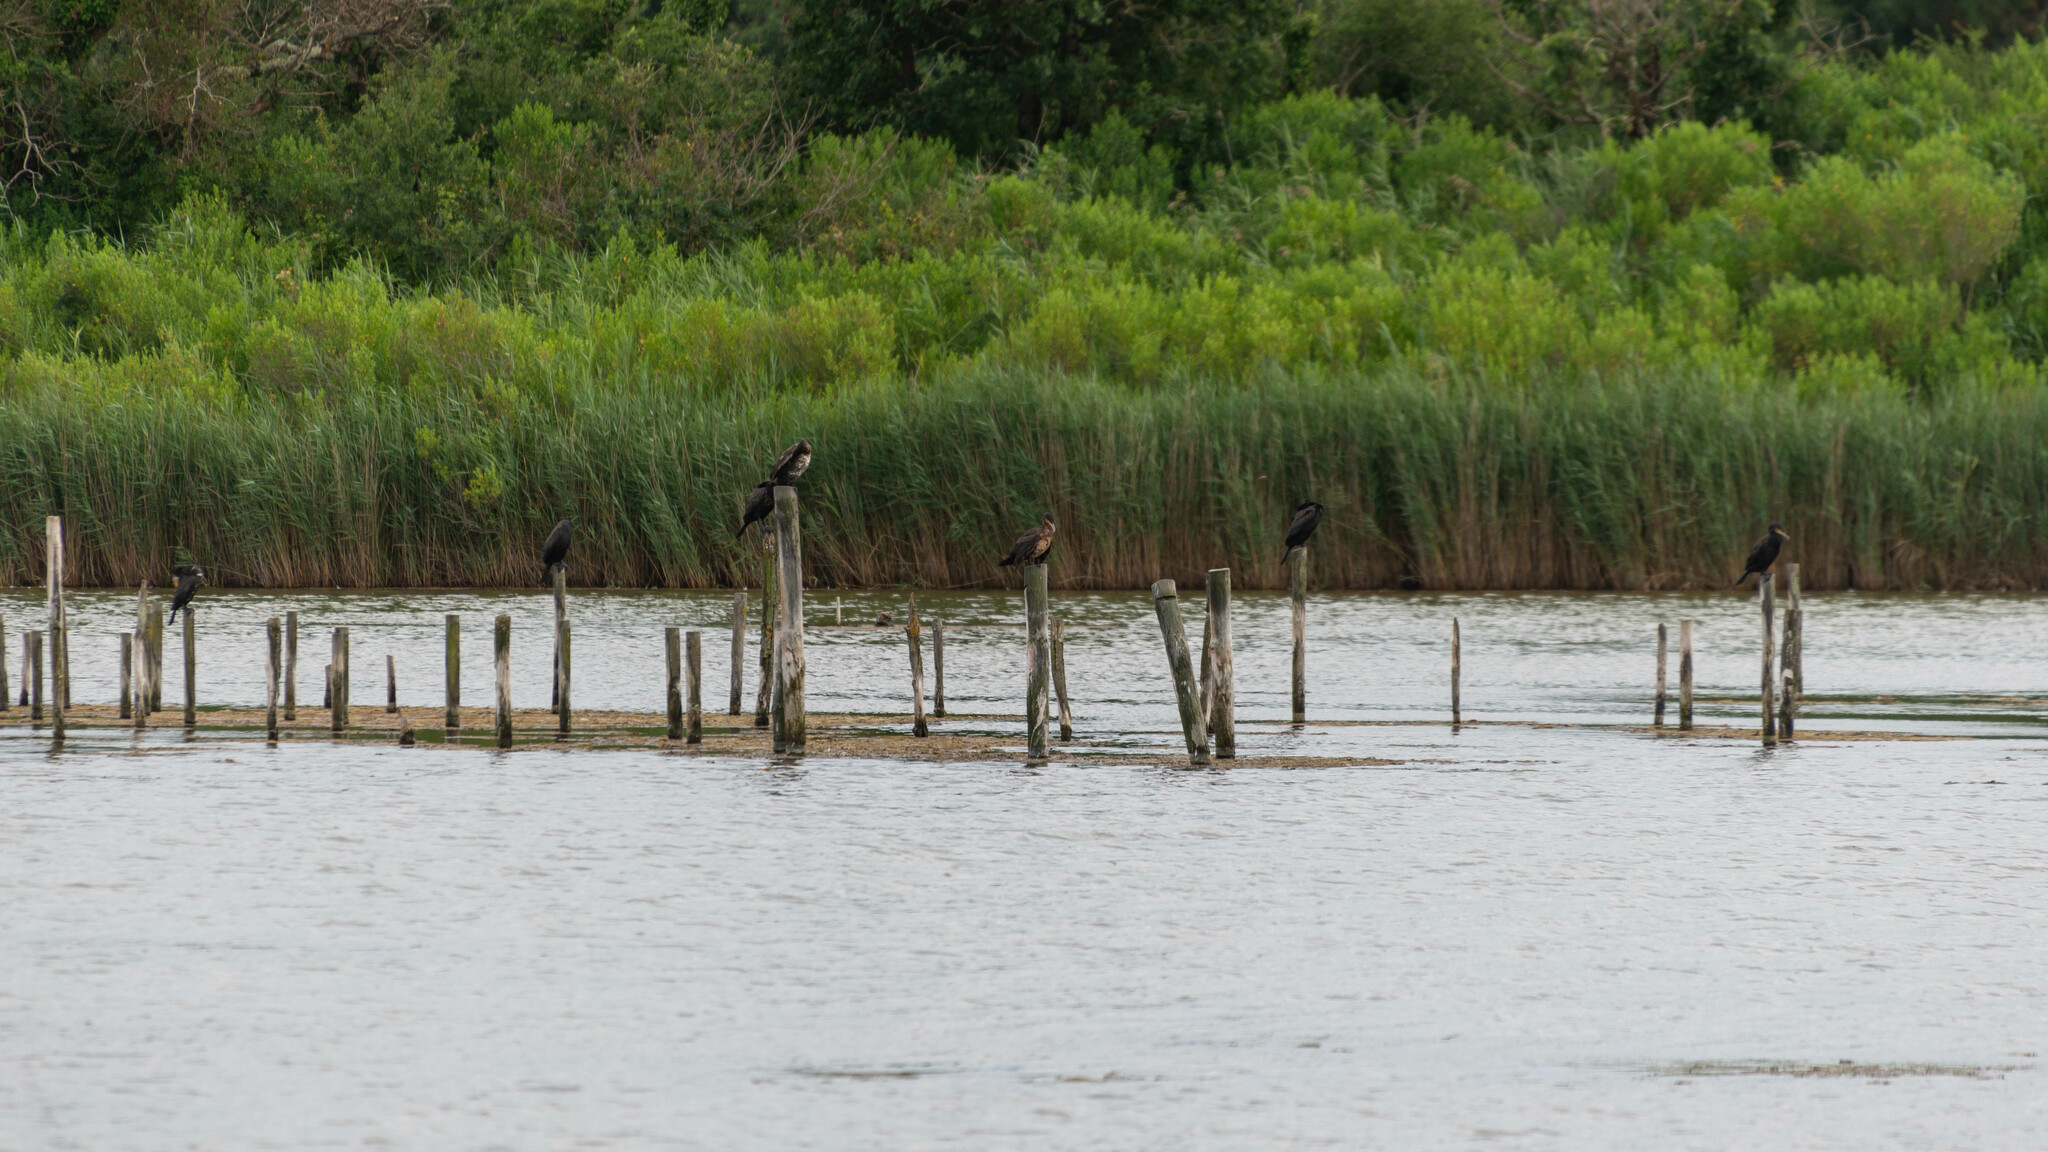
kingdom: Animalia
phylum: Chordata
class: Aves
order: Suliformes
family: Phalacrocoracidae
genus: Phalacrocorax
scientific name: Phalacrocorax carbo
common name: Great cormorant
